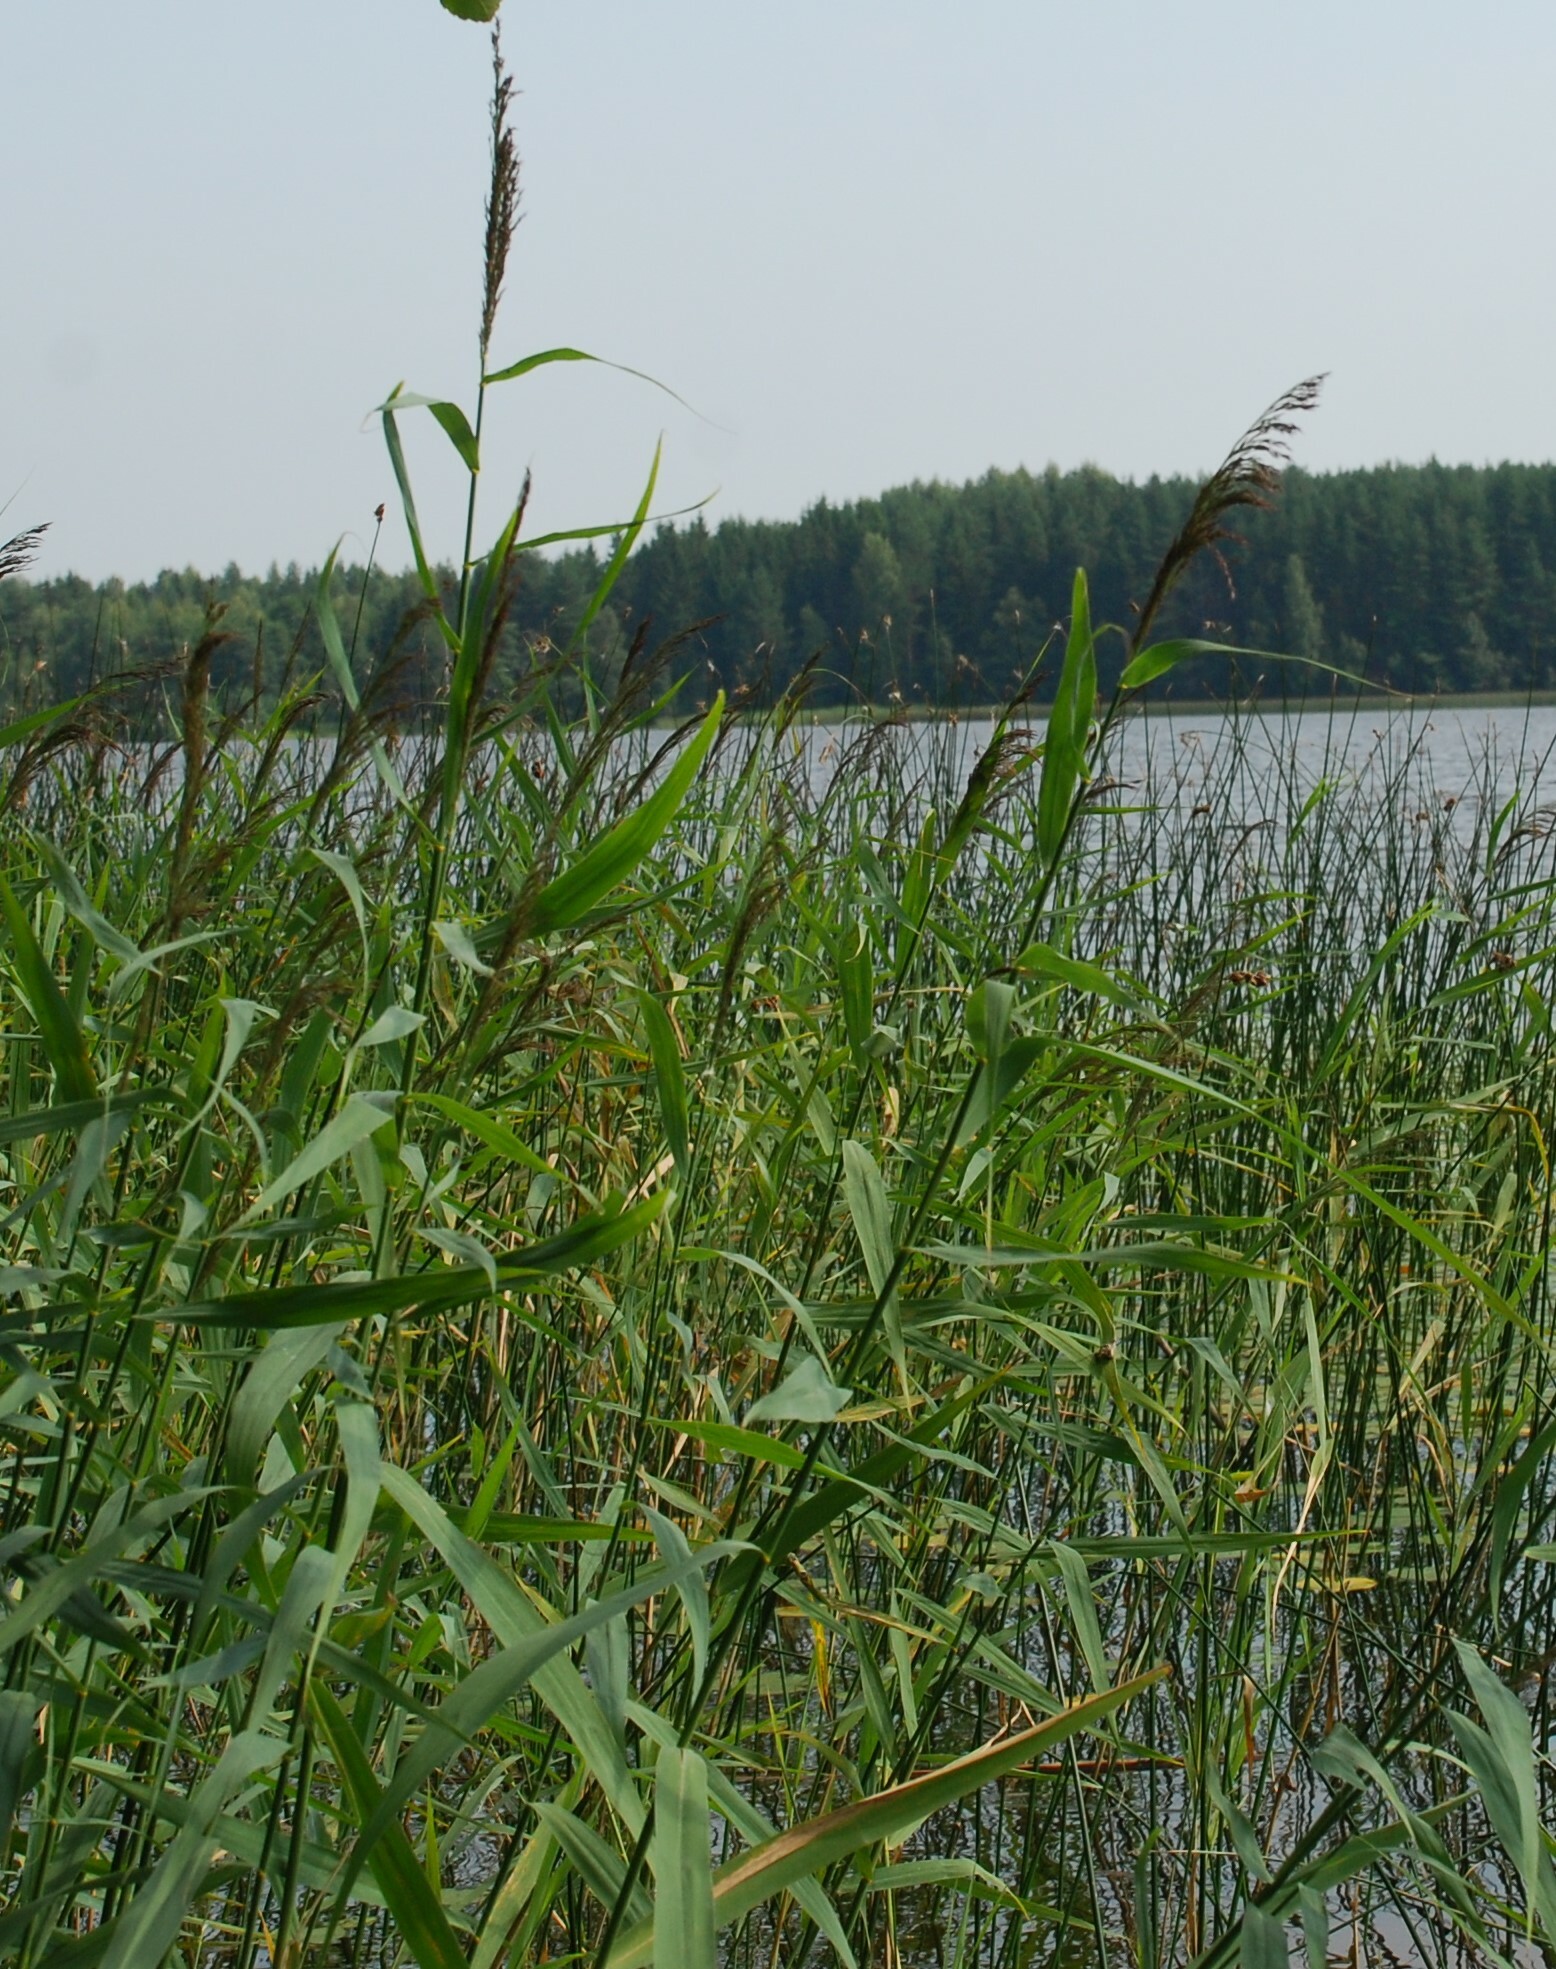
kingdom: Plantae
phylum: Tracheophyta
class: Liliopsida
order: Poales
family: Poaceae
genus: Phragmites
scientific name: Phragmites australis
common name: Common reed
